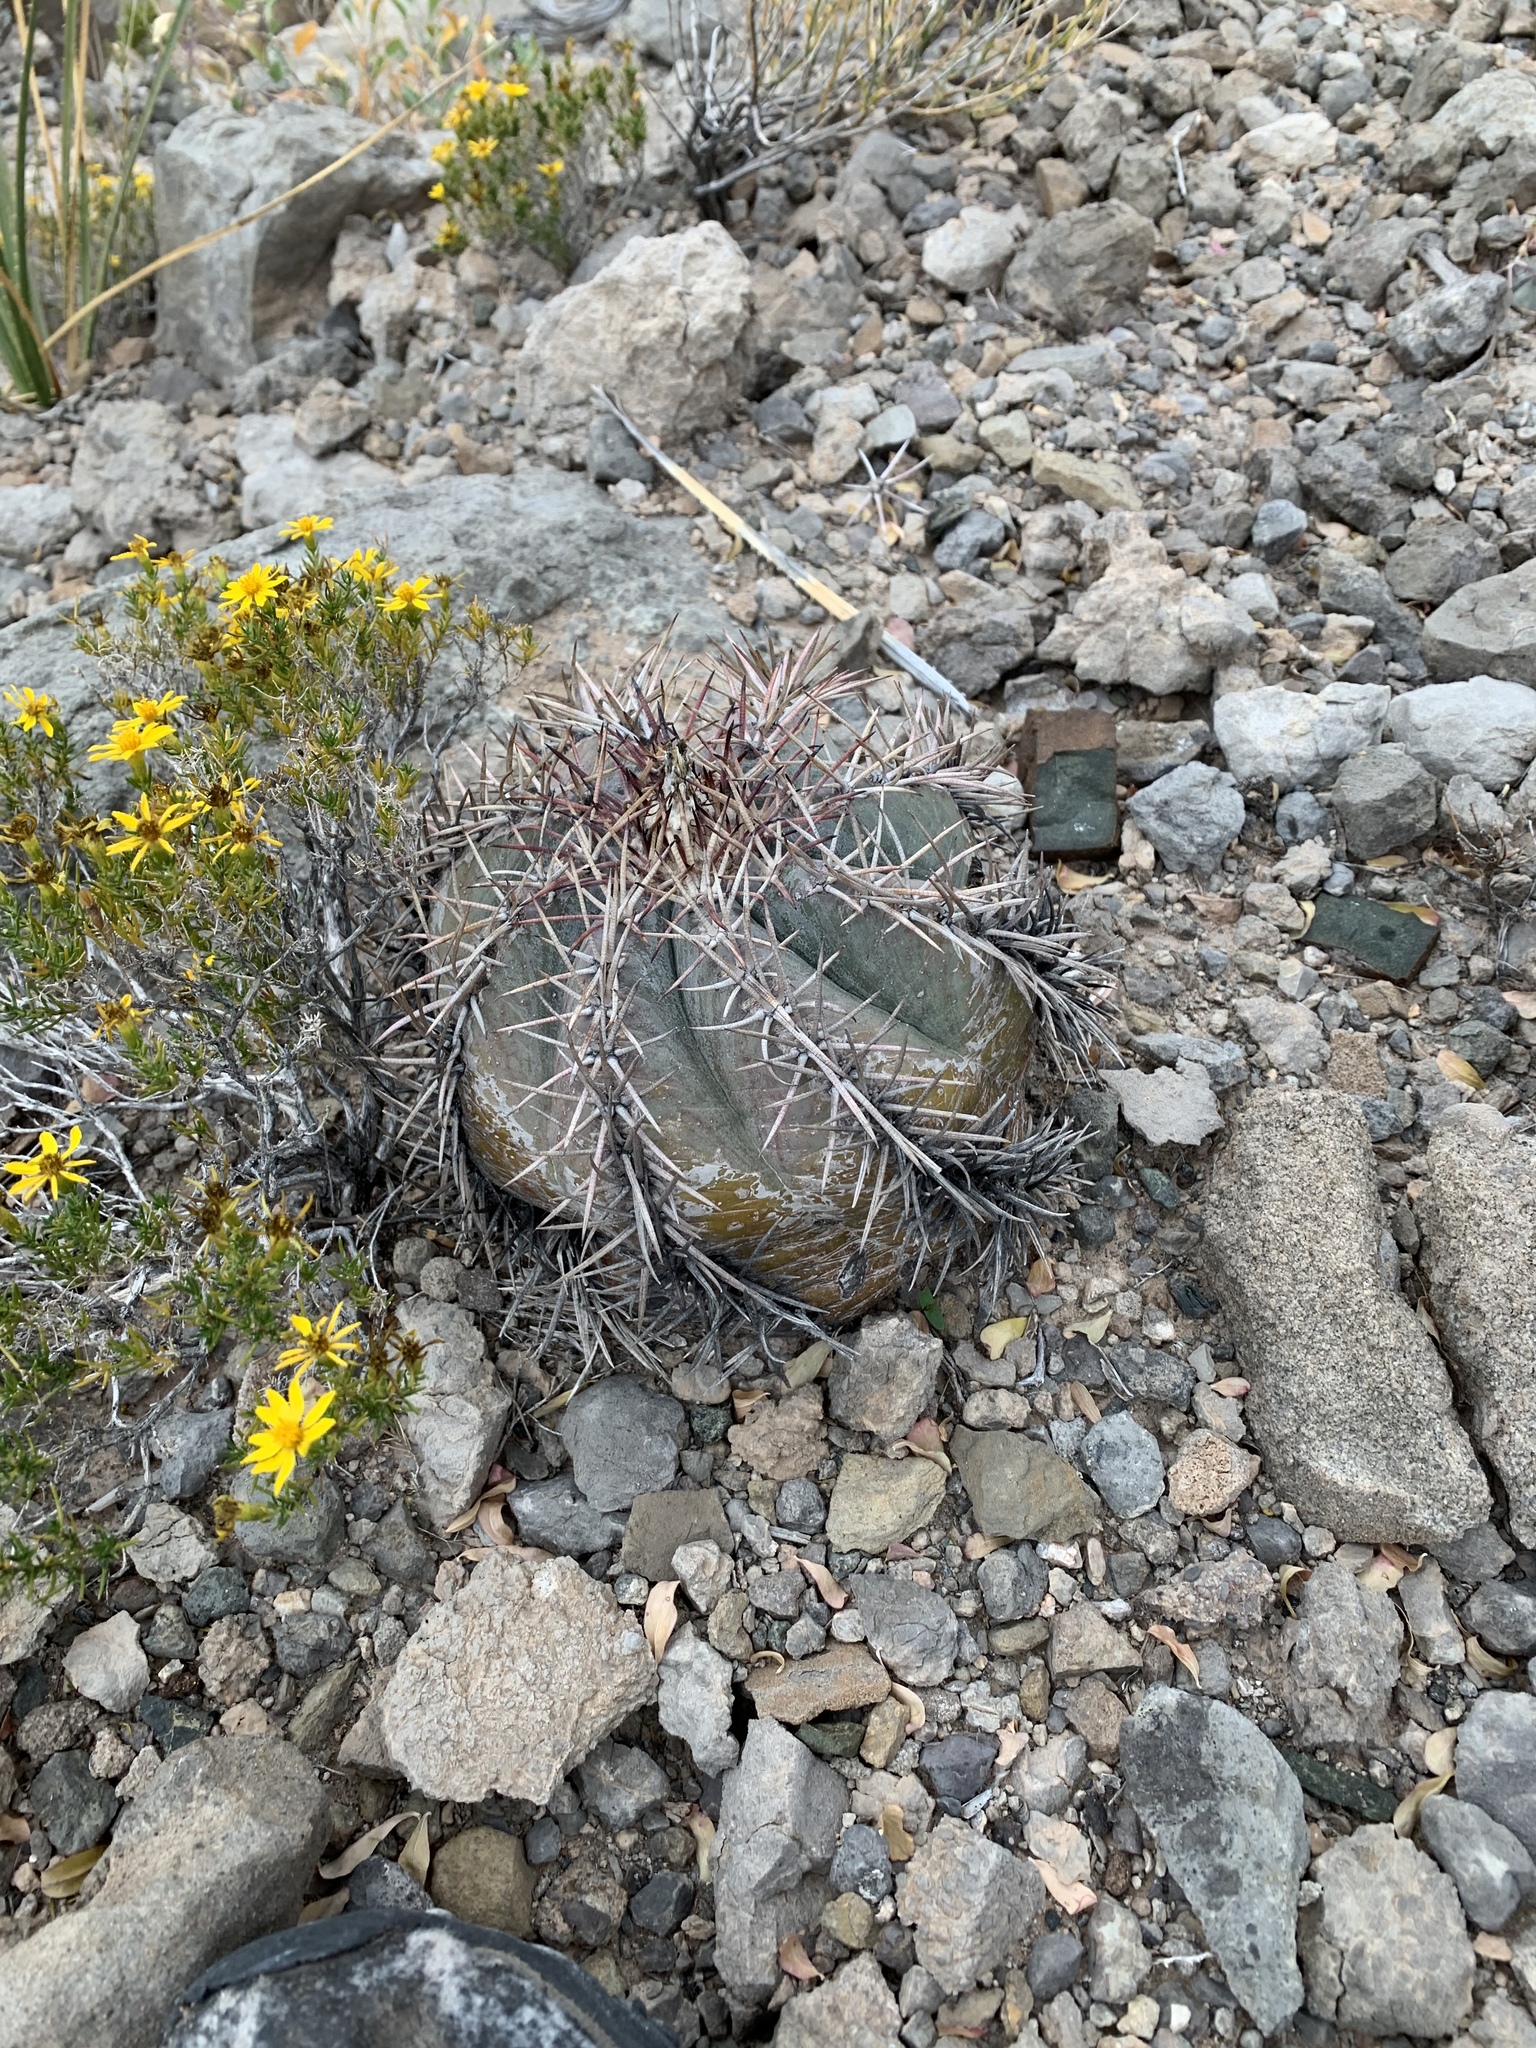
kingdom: Plantae
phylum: Tracheophyta
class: Magnoliopsida
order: Caryophyllales
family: Cactaceae
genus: Echinocactus
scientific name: Echinocactus horizonthalonius
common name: Devilshead
